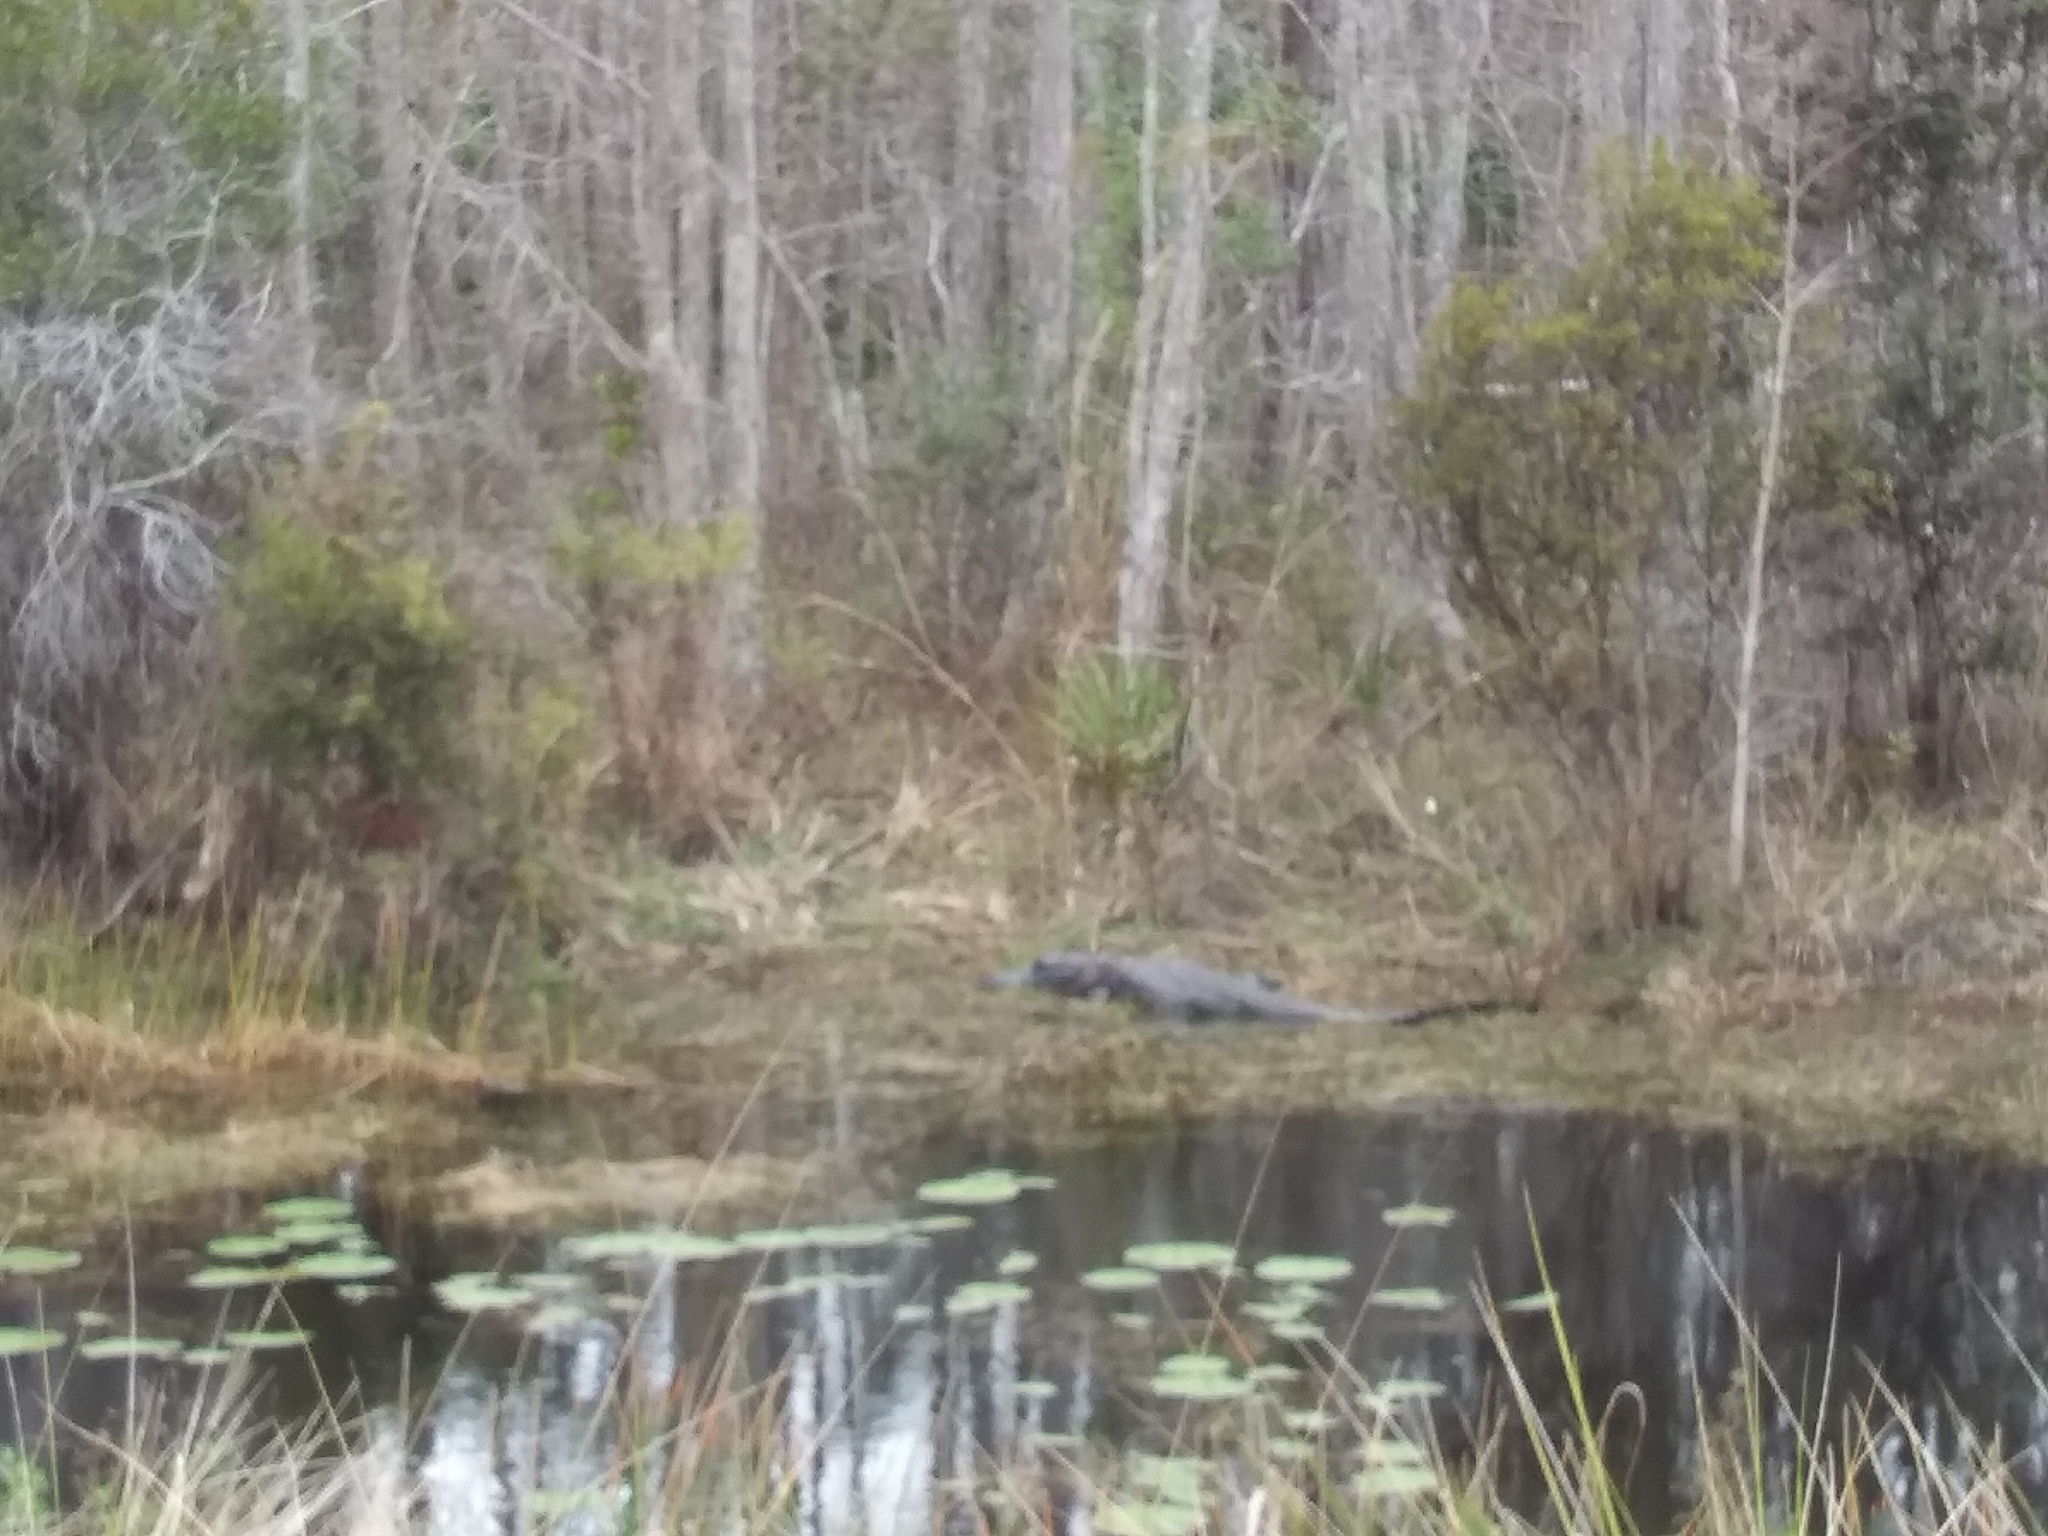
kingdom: Animalia
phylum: Chordata
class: Crocodylia
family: Alligatoridae
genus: Alligator
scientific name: Alligator mississippiensis
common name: American alligator
